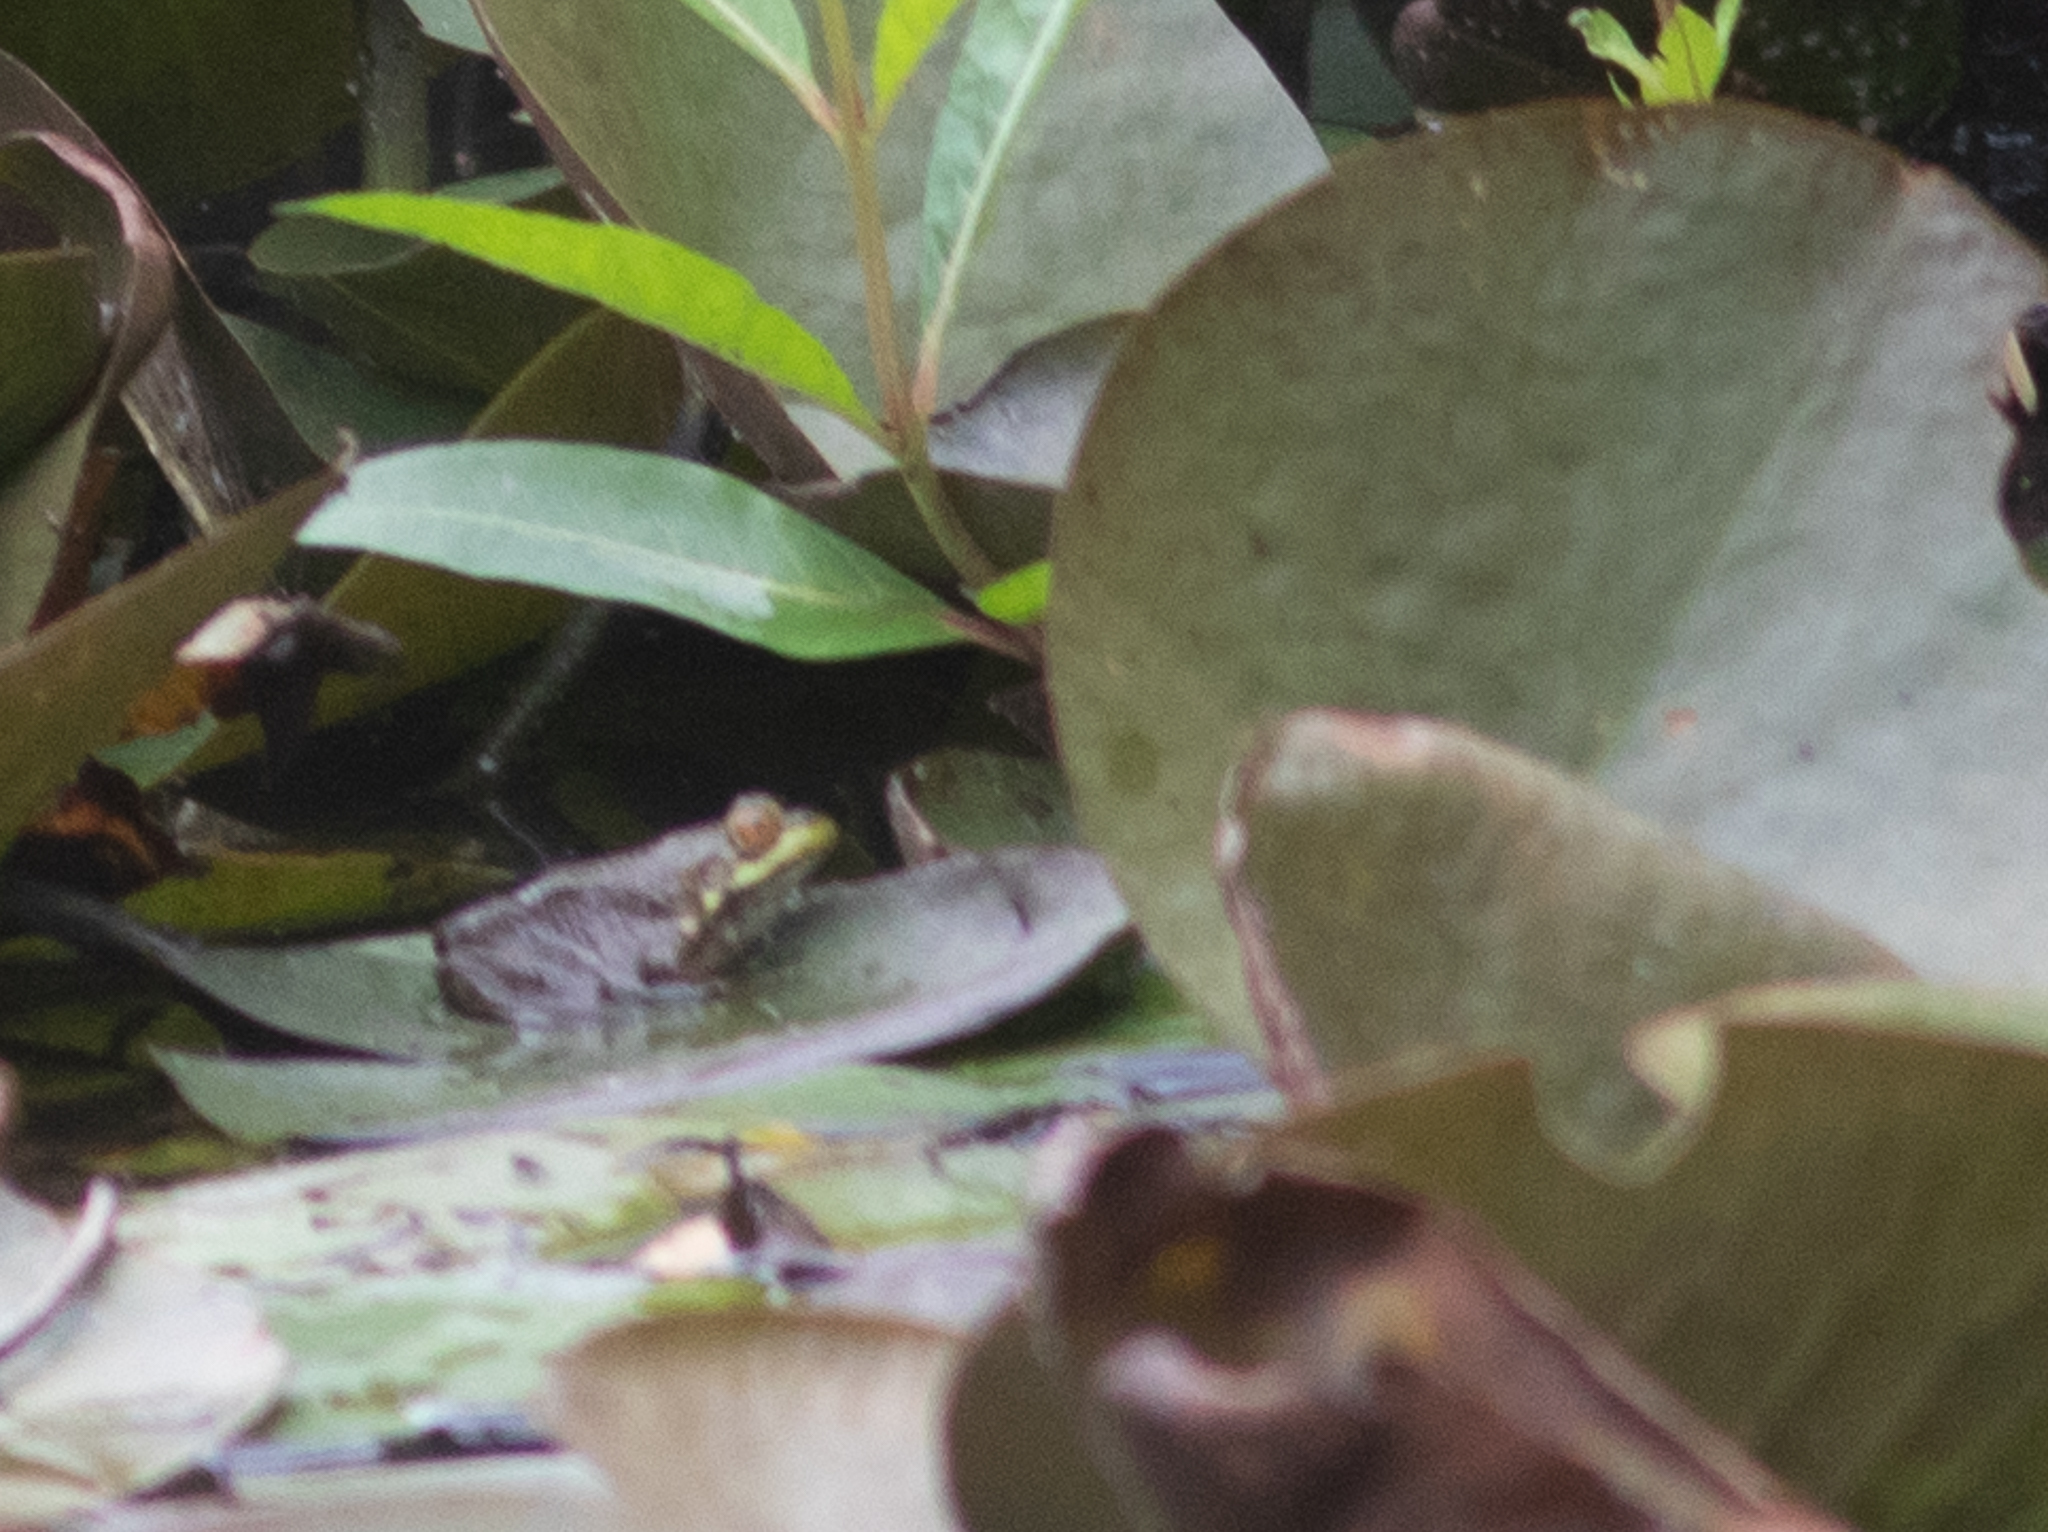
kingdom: Animalia
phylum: Chordata
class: Amphibia
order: Anura
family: Ranidae
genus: Lithobates
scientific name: Lithobates clamitans
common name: Green frog
